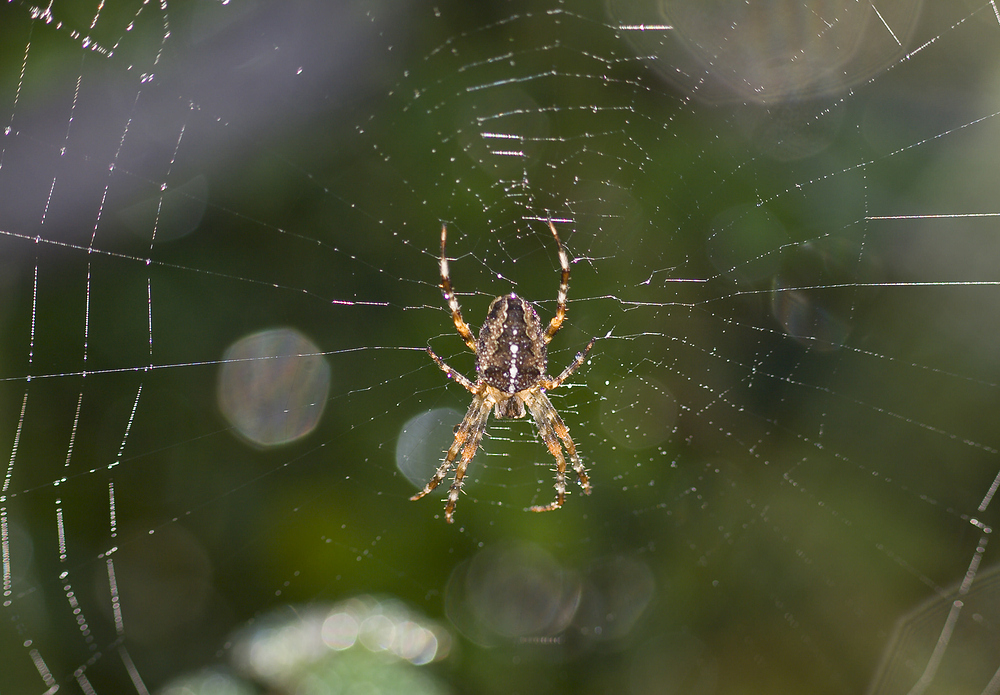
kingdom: Animalia
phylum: Arthropoda
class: Arachnida
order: Araneae
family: Araneidae
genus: Araneus
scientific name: Araneus diadematus
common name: Cross orbweaver
